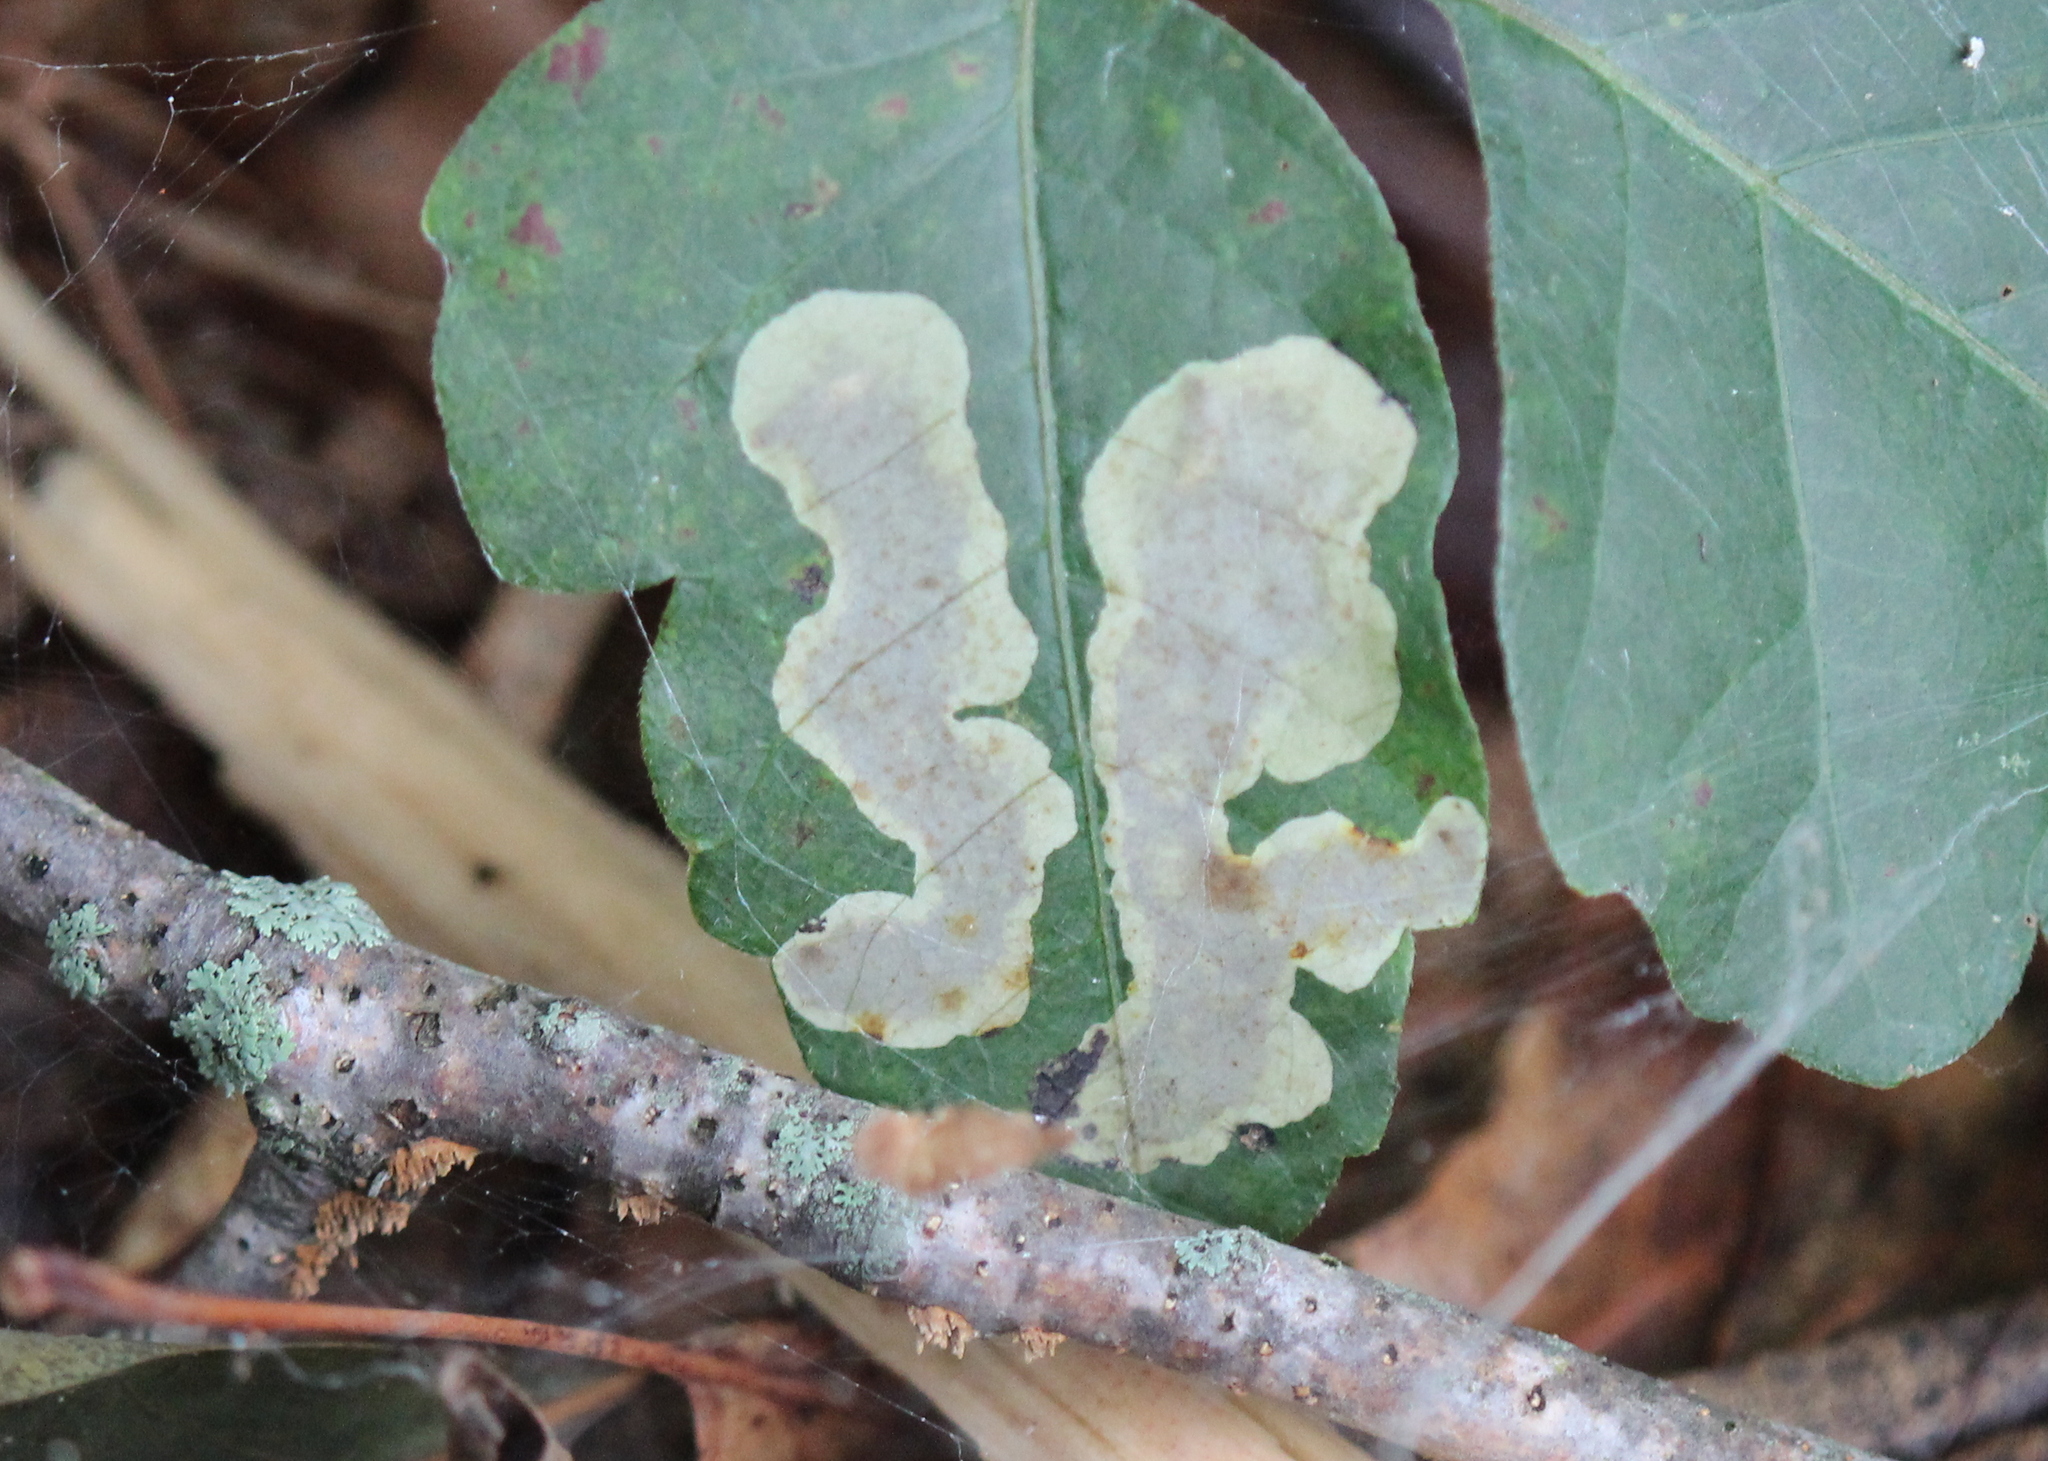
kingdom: Animalia
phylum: Arthropoda
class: Insecta
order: Lepidoptera
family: Gracillariidae
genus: Cameraria
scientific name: Cameraria guttifinitella
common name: Poison ivy leaf-miner moth
